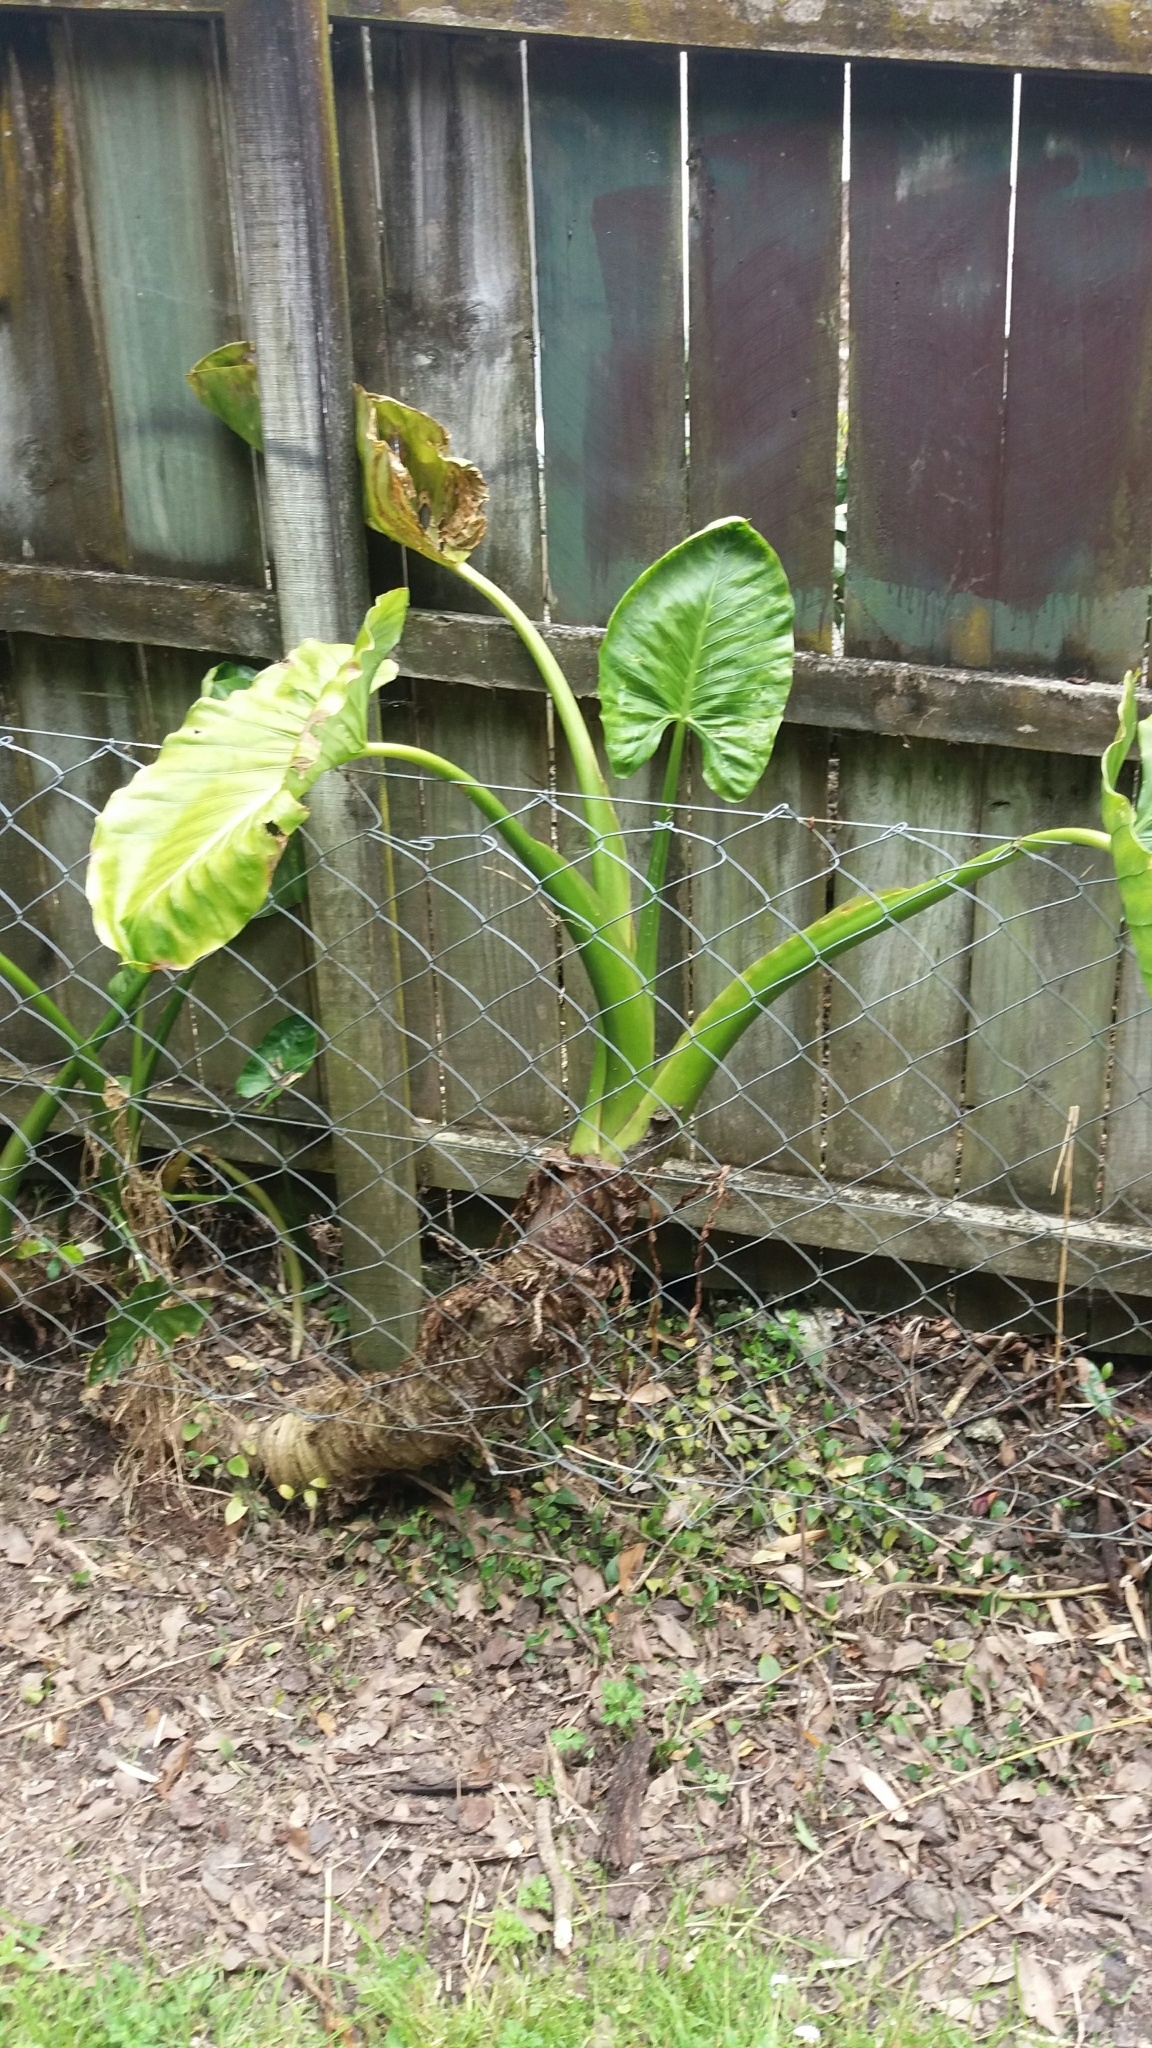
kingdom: Plantae
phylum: Tracheophyta
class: Liliopsida
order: Alismatales
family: Araceae
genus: Alocasia
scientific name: Alocasia brisbanensis
